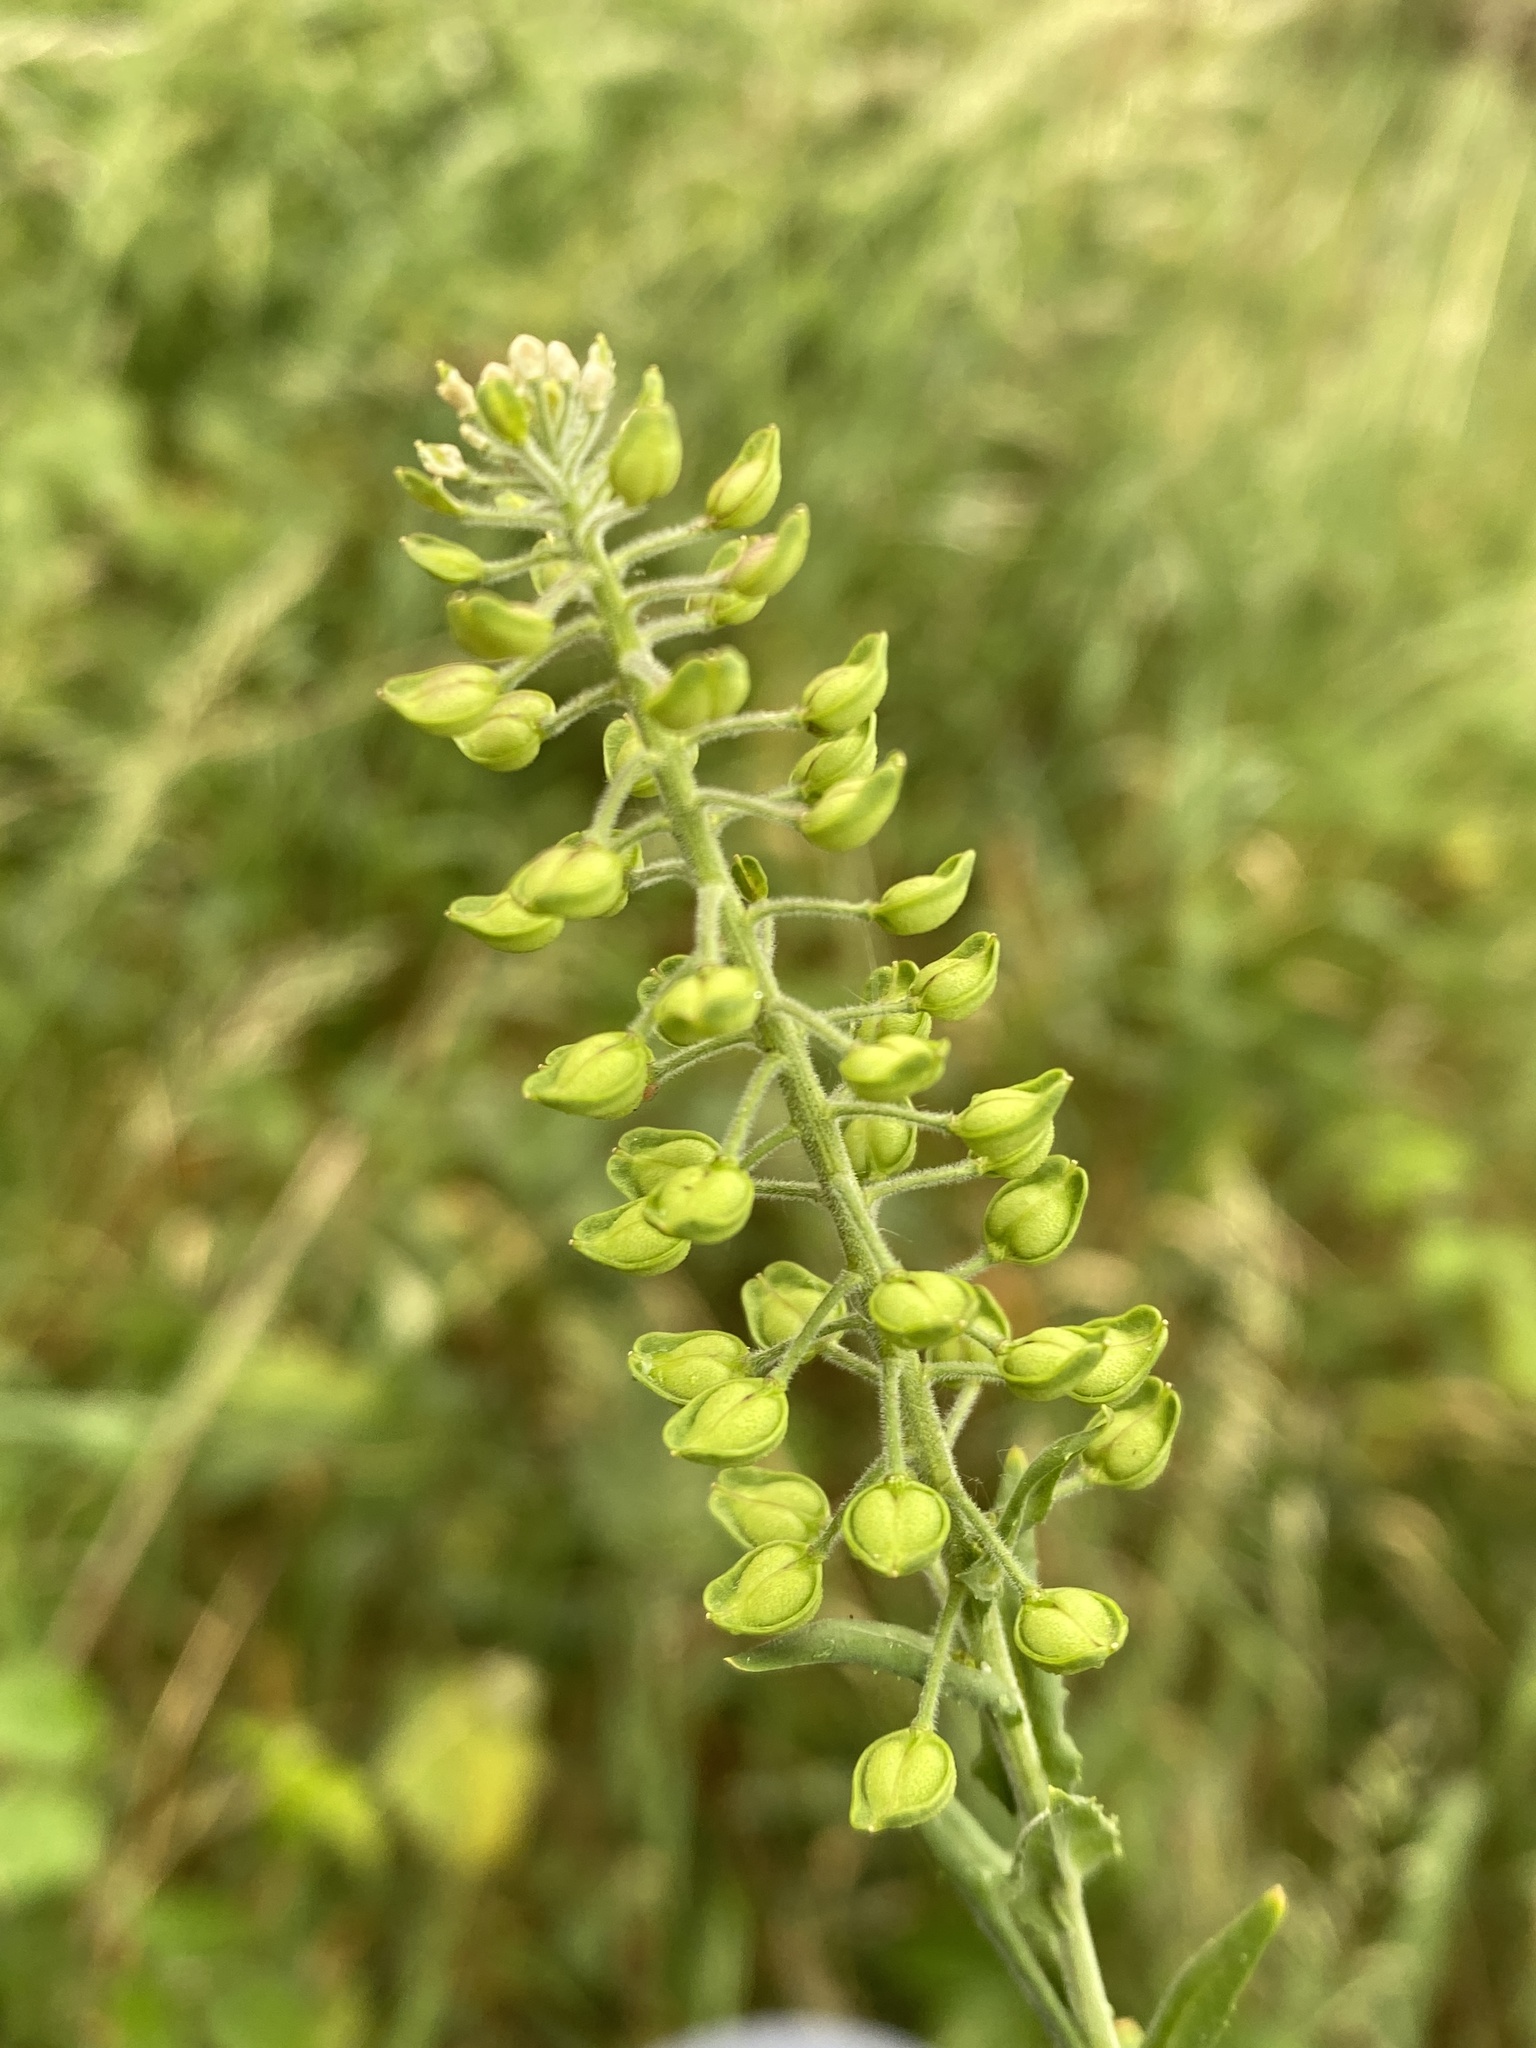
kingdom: Plantae
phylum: Tracheophyta
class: Magnoliopsida
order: Brassicales
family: Brassicaceae
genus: Lepidium
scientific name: Lepidium campestre
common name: Field pepperwort
